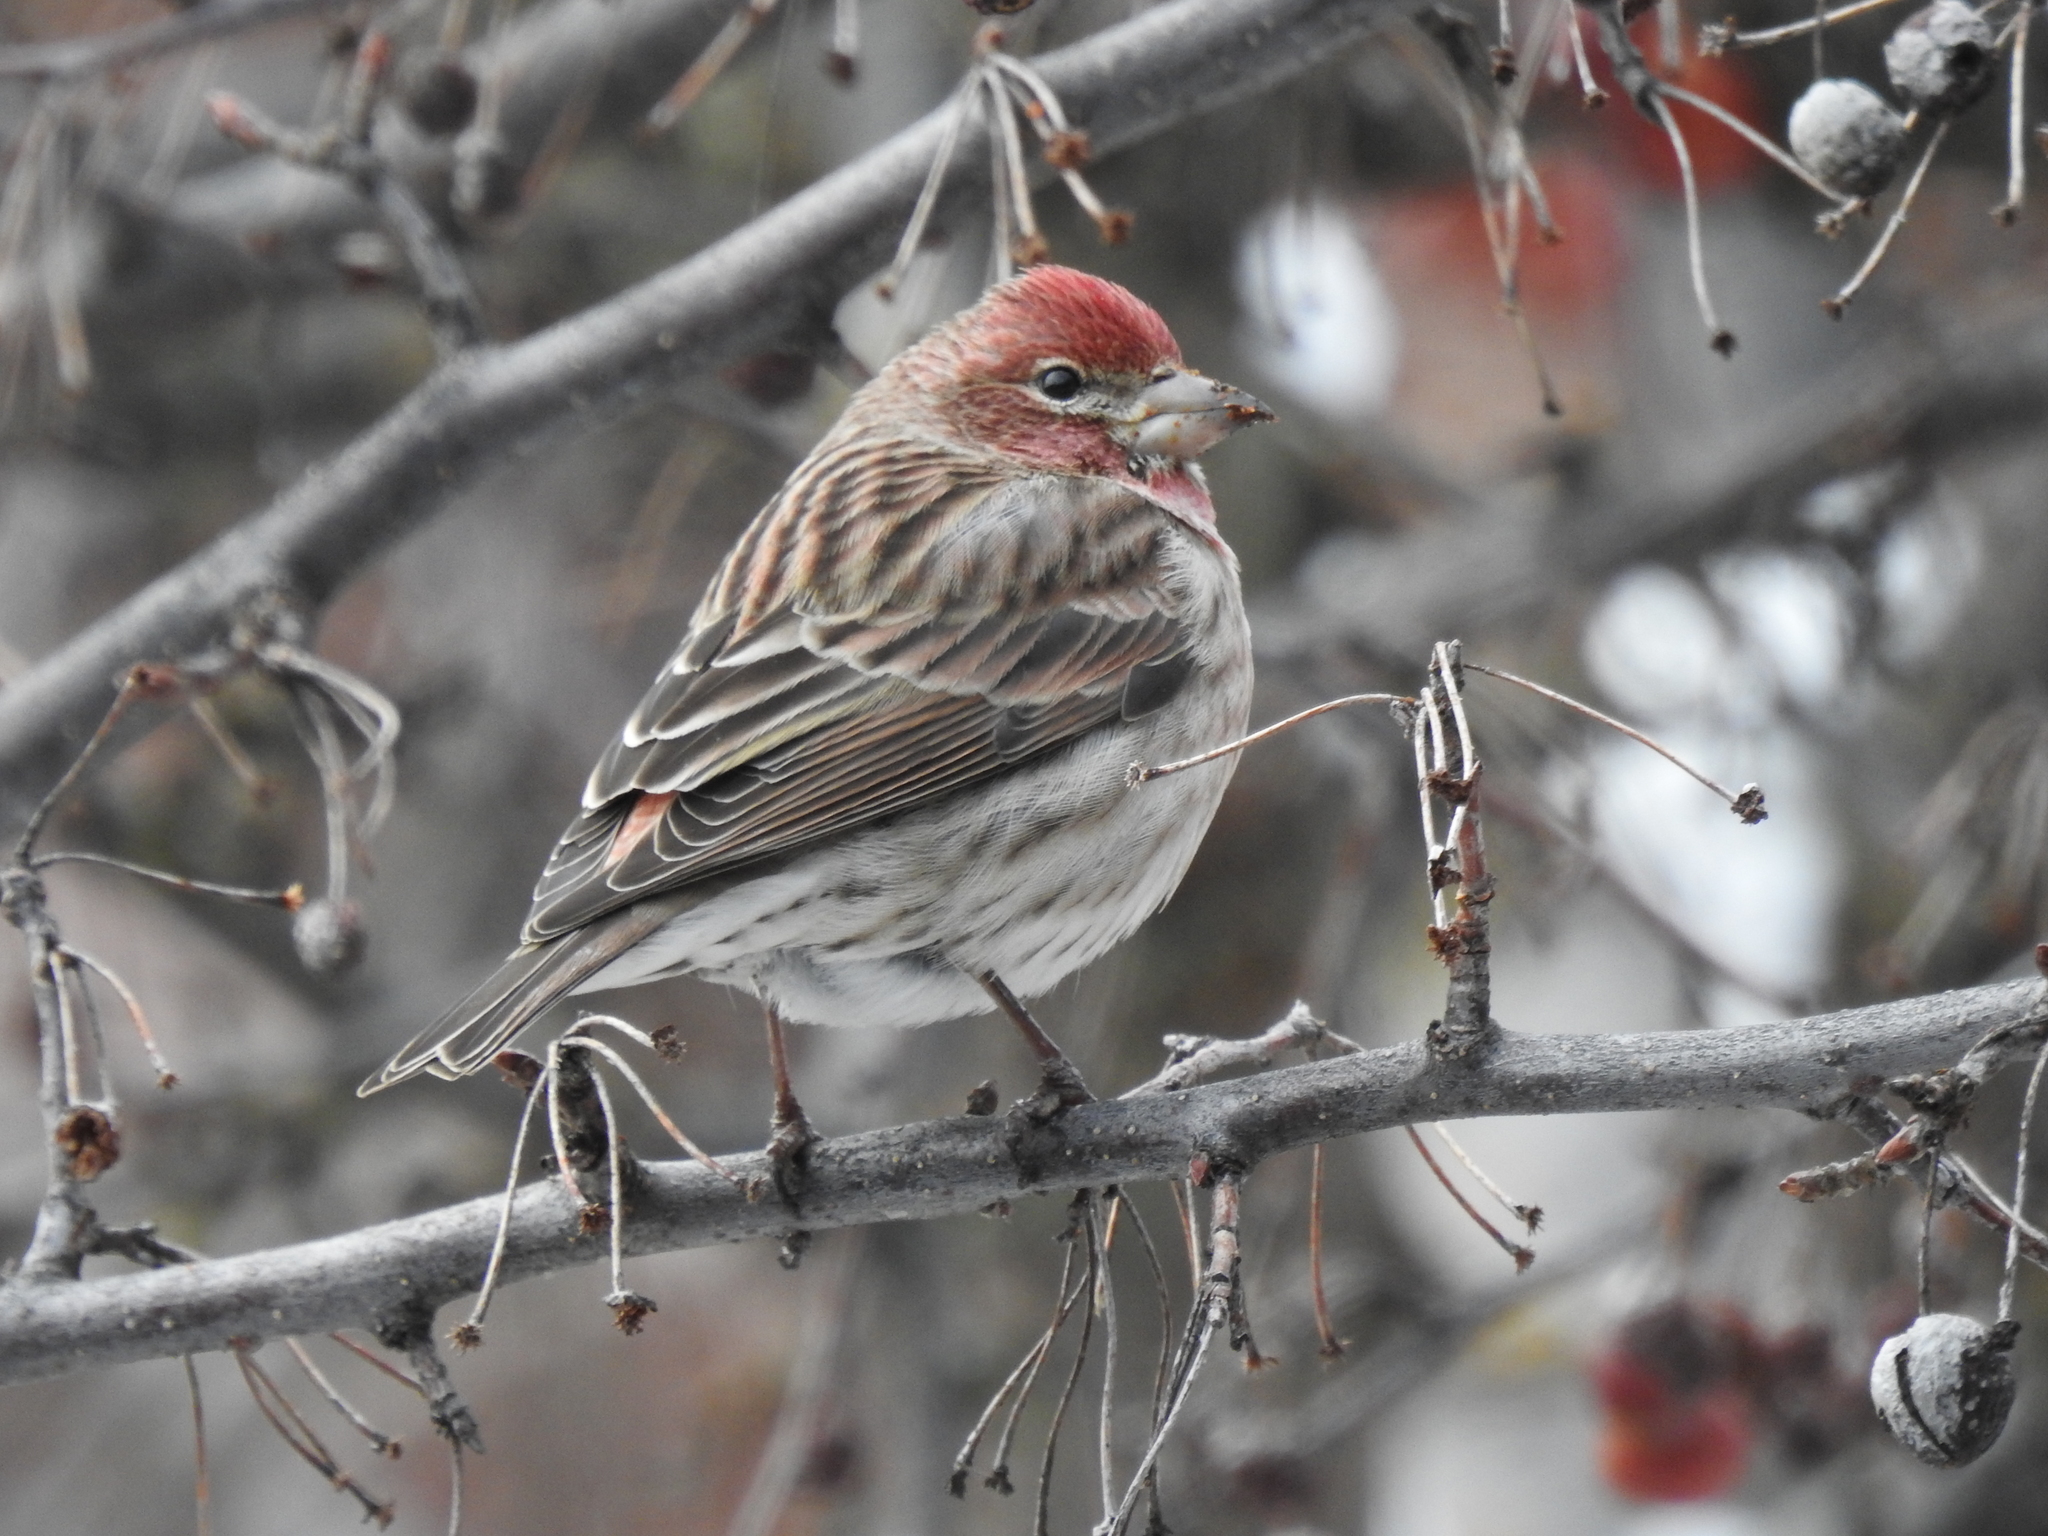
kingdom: Animalia
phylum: Chordata
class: Aves
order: Passeriformes
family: Fringillidae
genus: Haemorhous
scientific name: Haemorhous cassinii
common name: Cassin's finch
